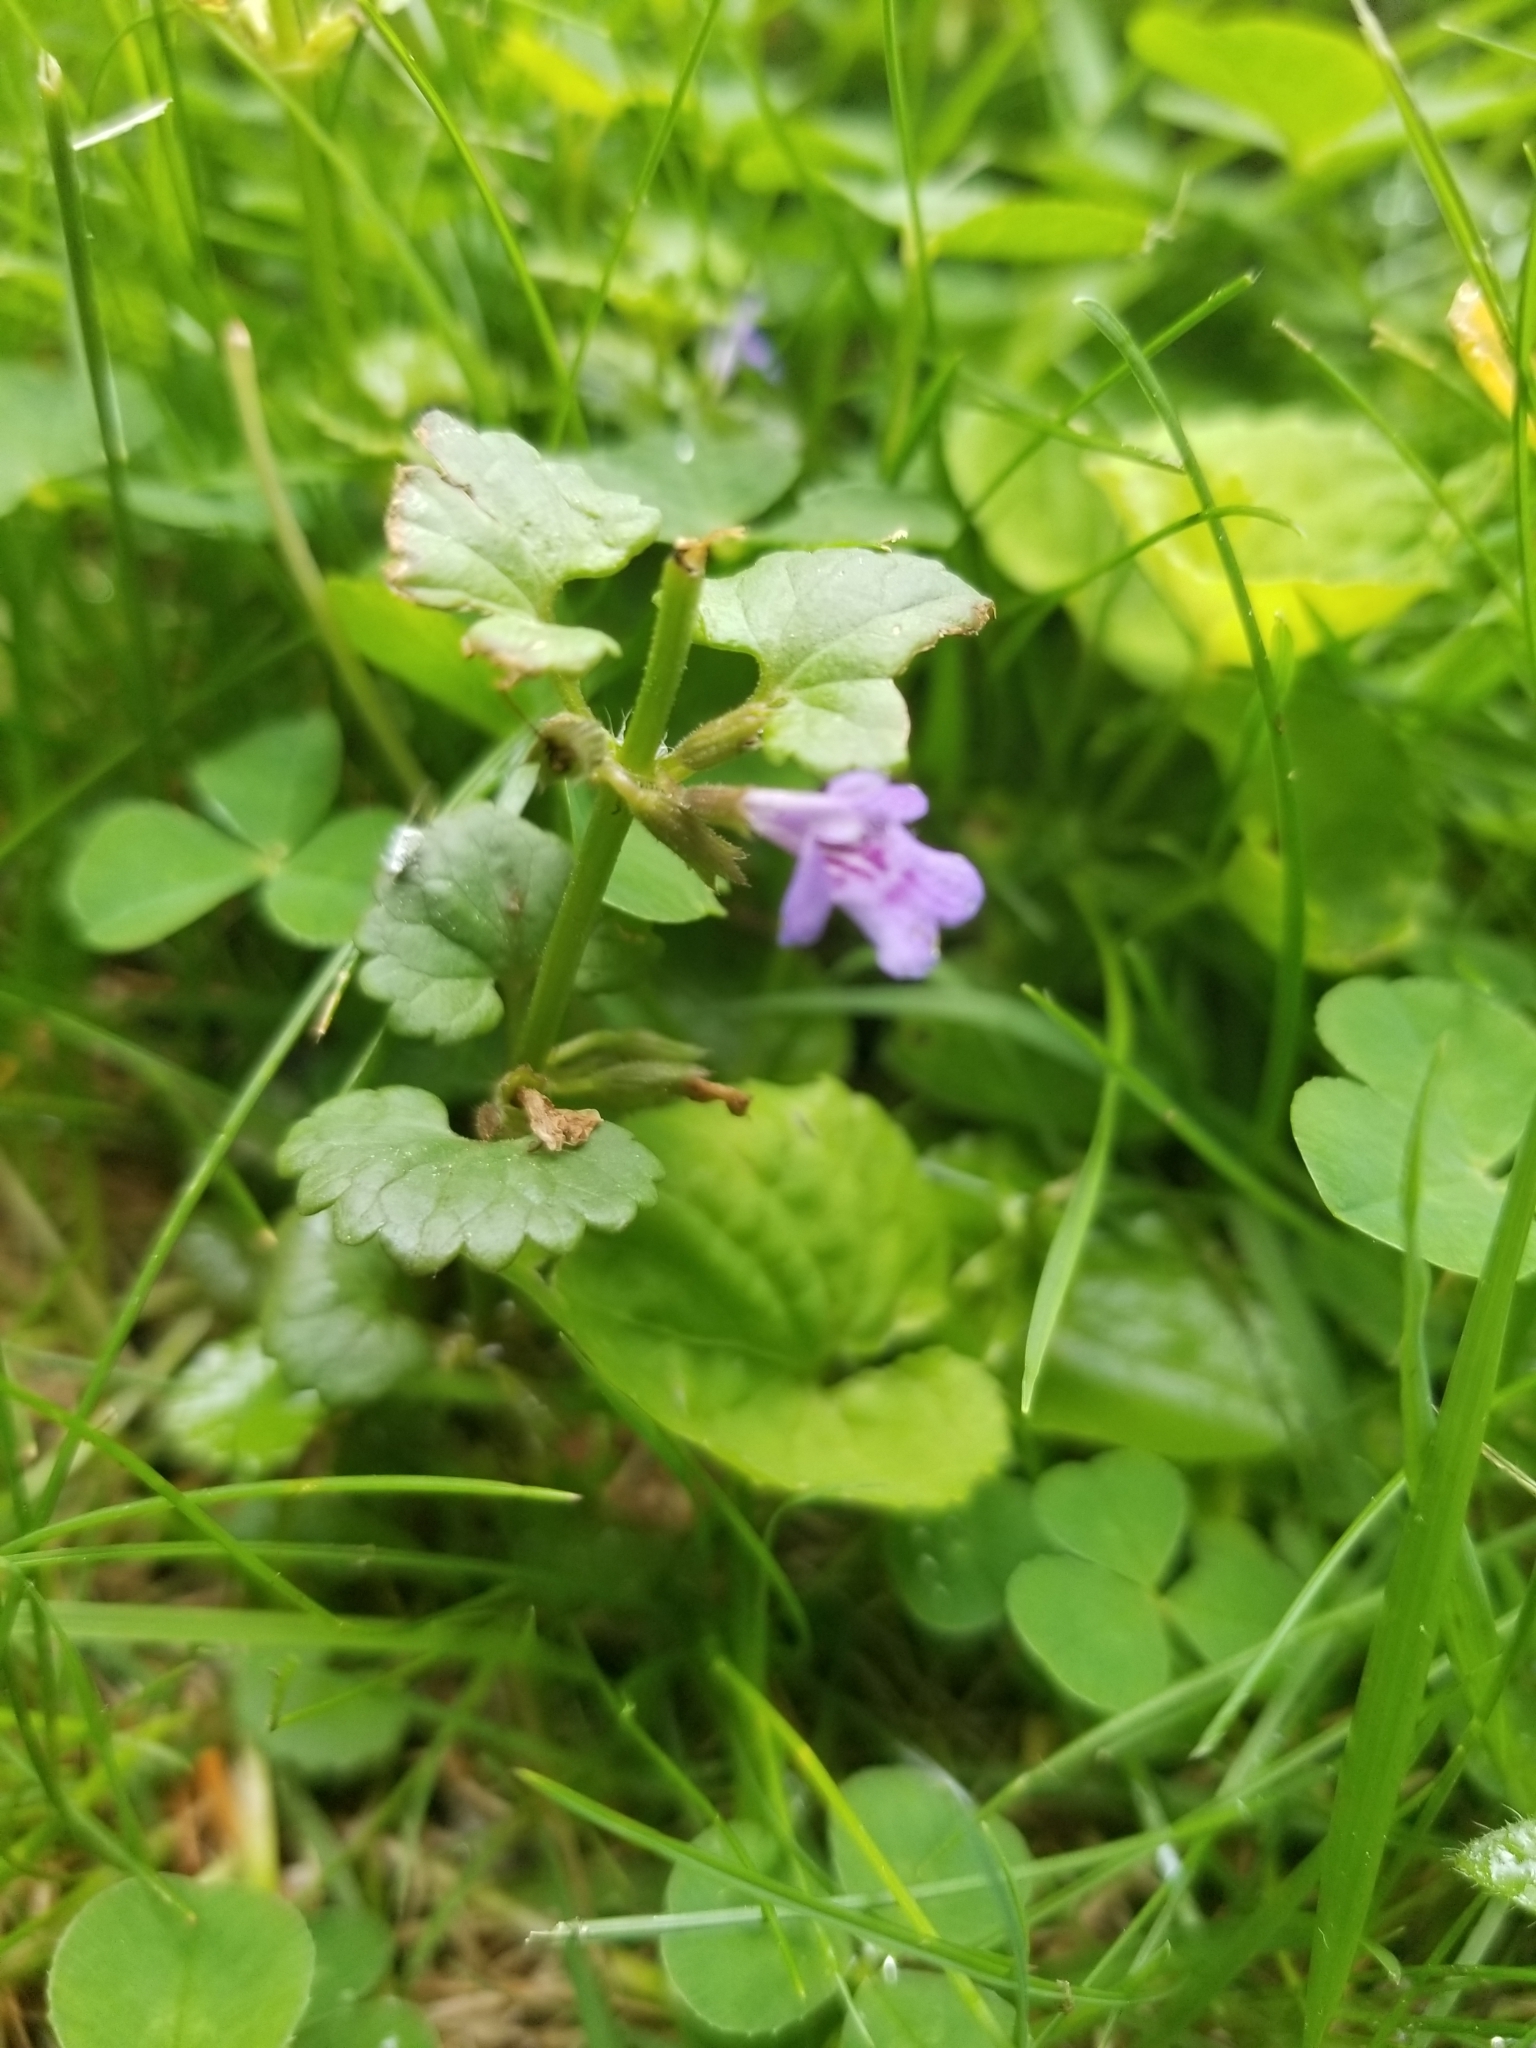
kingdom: Plantae
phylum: Tracheophyta
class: Magnoliopsida
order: Lamiales
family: Lamiaceae
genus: Glechoma
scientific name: Glechoma hederacea
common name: Ground ivy
